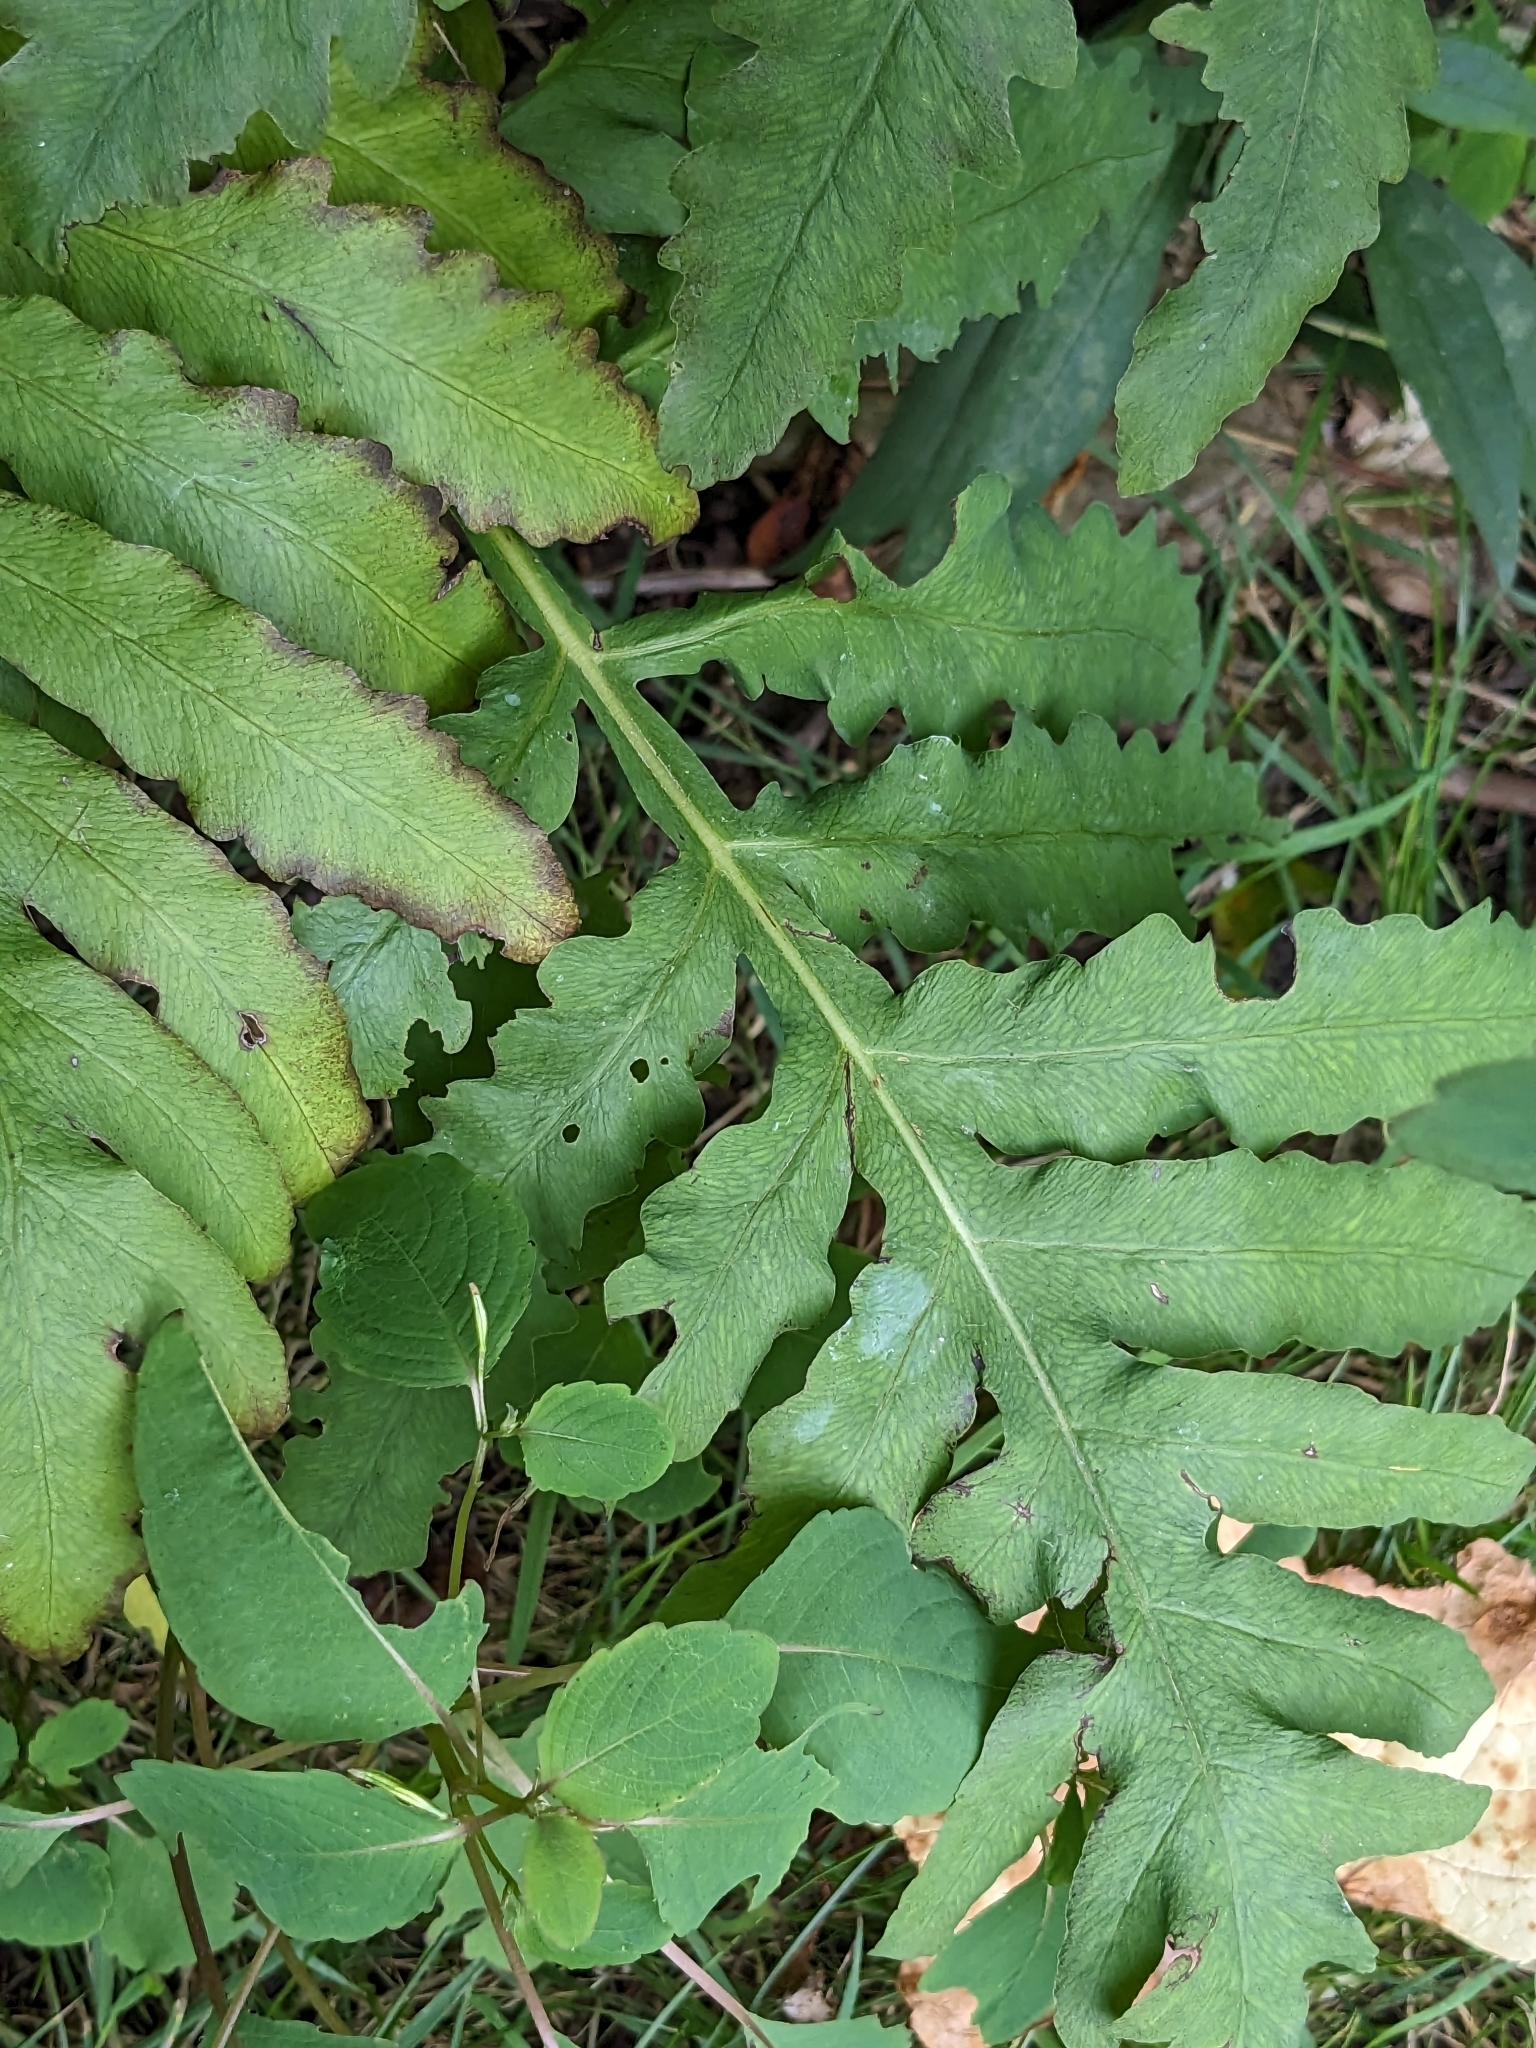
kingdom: Plantae
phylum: Tracheophyta
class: Polypodiopsida
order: Polypodiales
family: Onocleaceae
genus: Onoclea
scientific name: Onoclea sensibilis
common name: Sensitive fern
